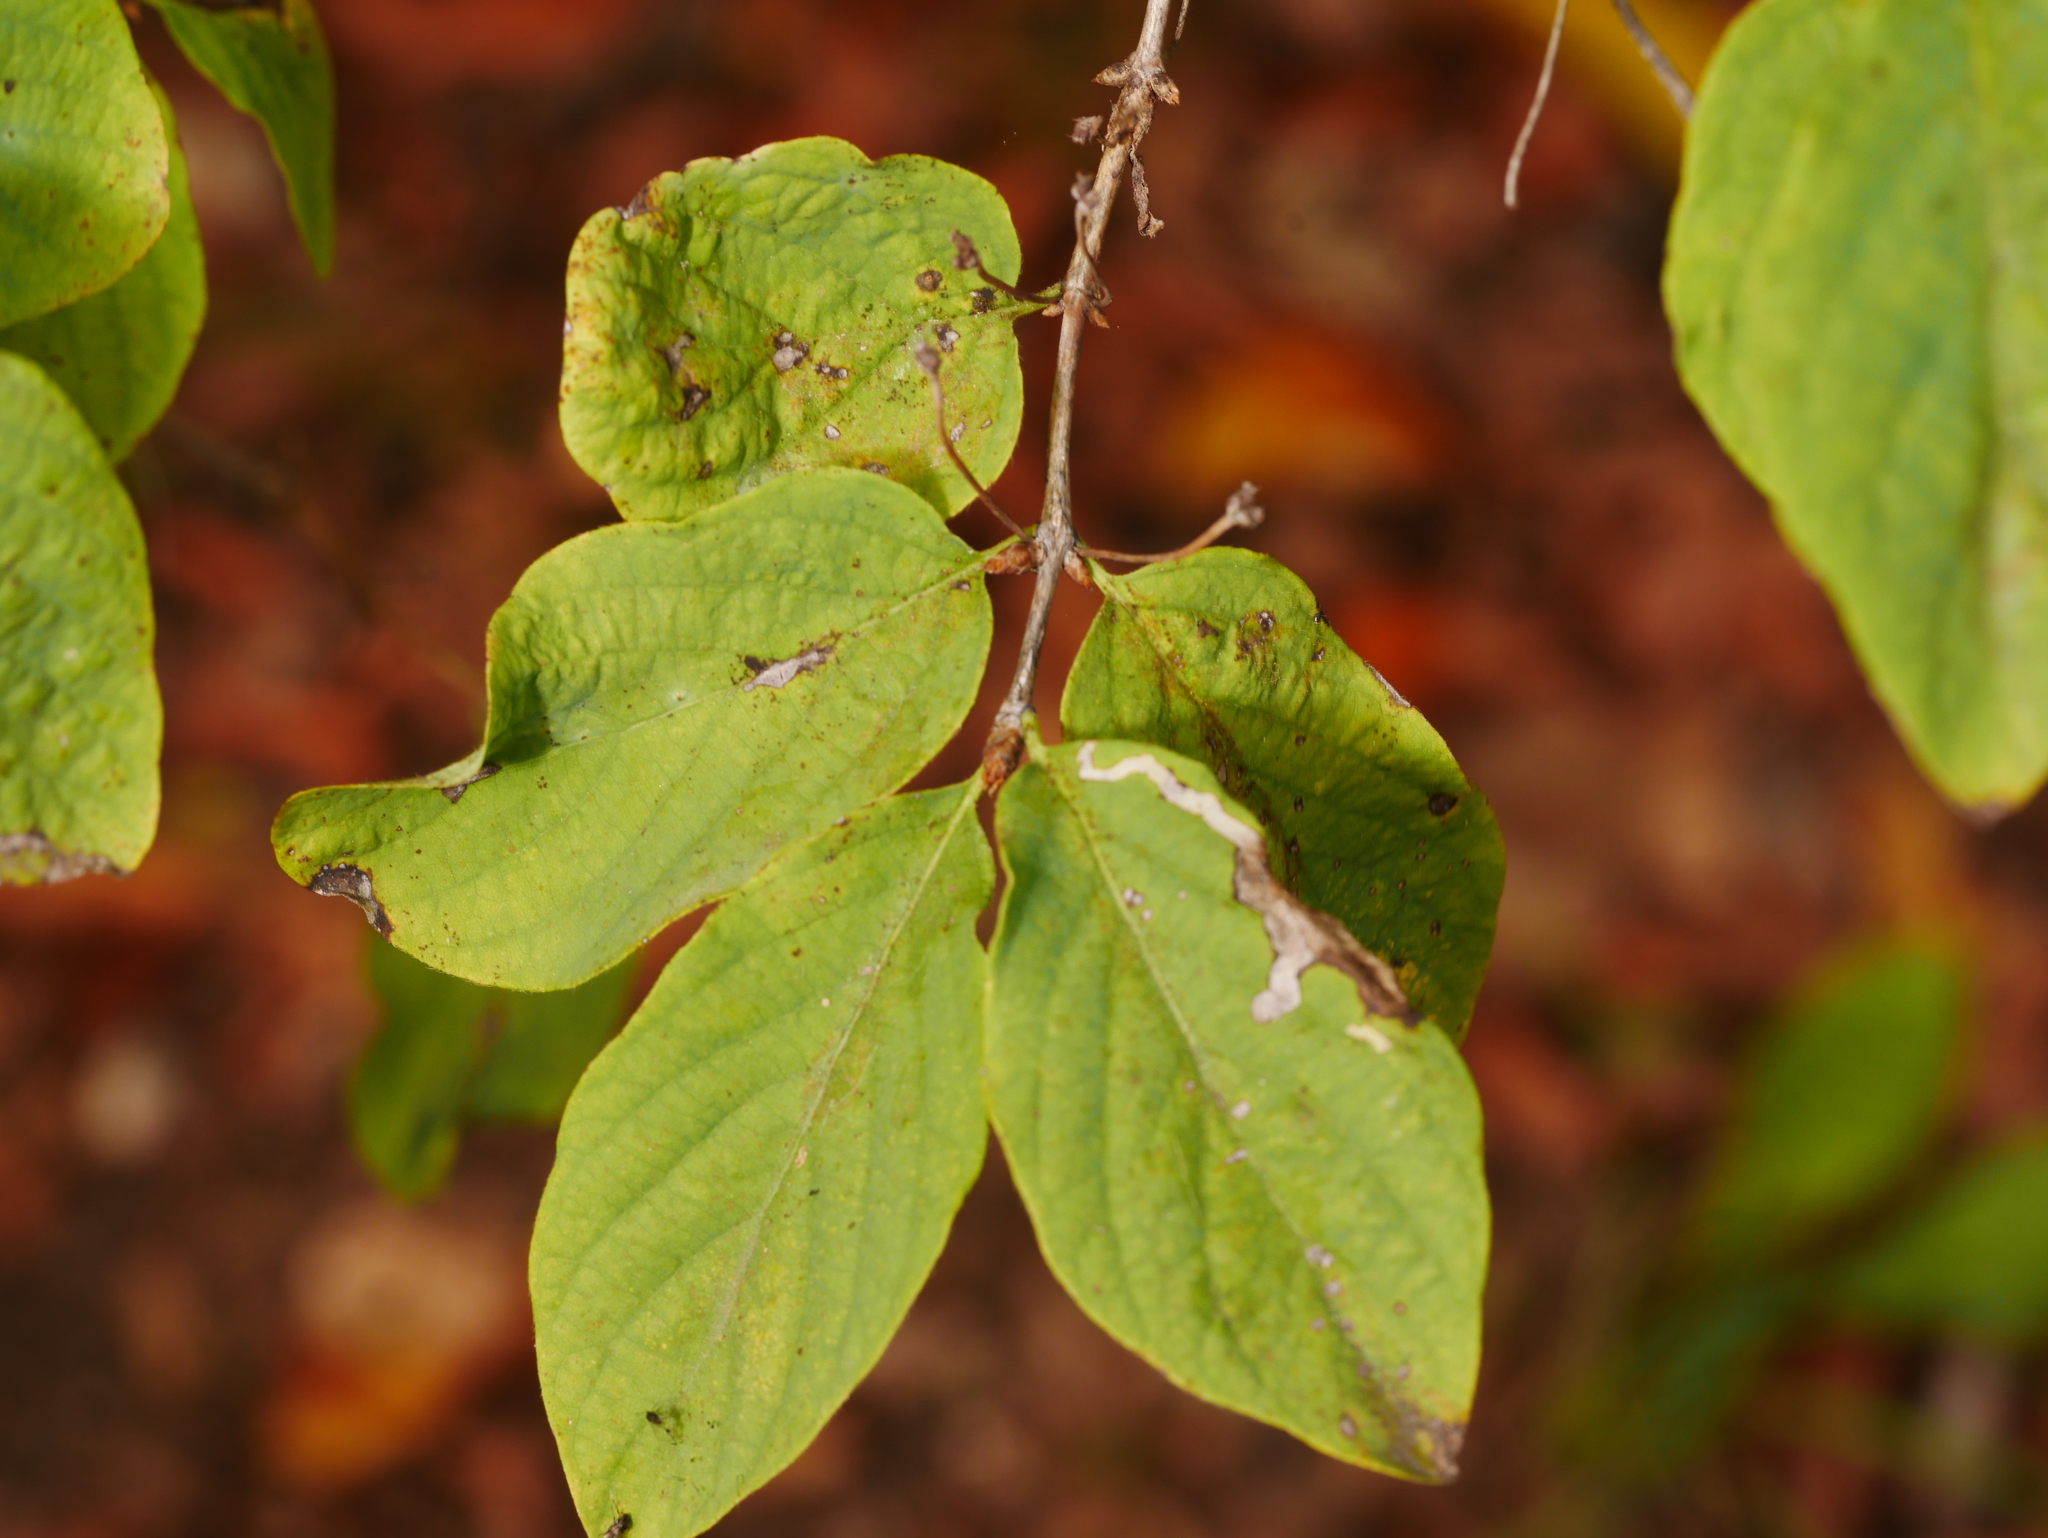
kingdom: Plantae
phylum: Tracheophyta
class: Magnoliopsida
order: Dipsacales
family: Caprifoliaceae
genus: Lonicera
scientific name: Lonicera xylosteum
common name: Fly honeysuckle
